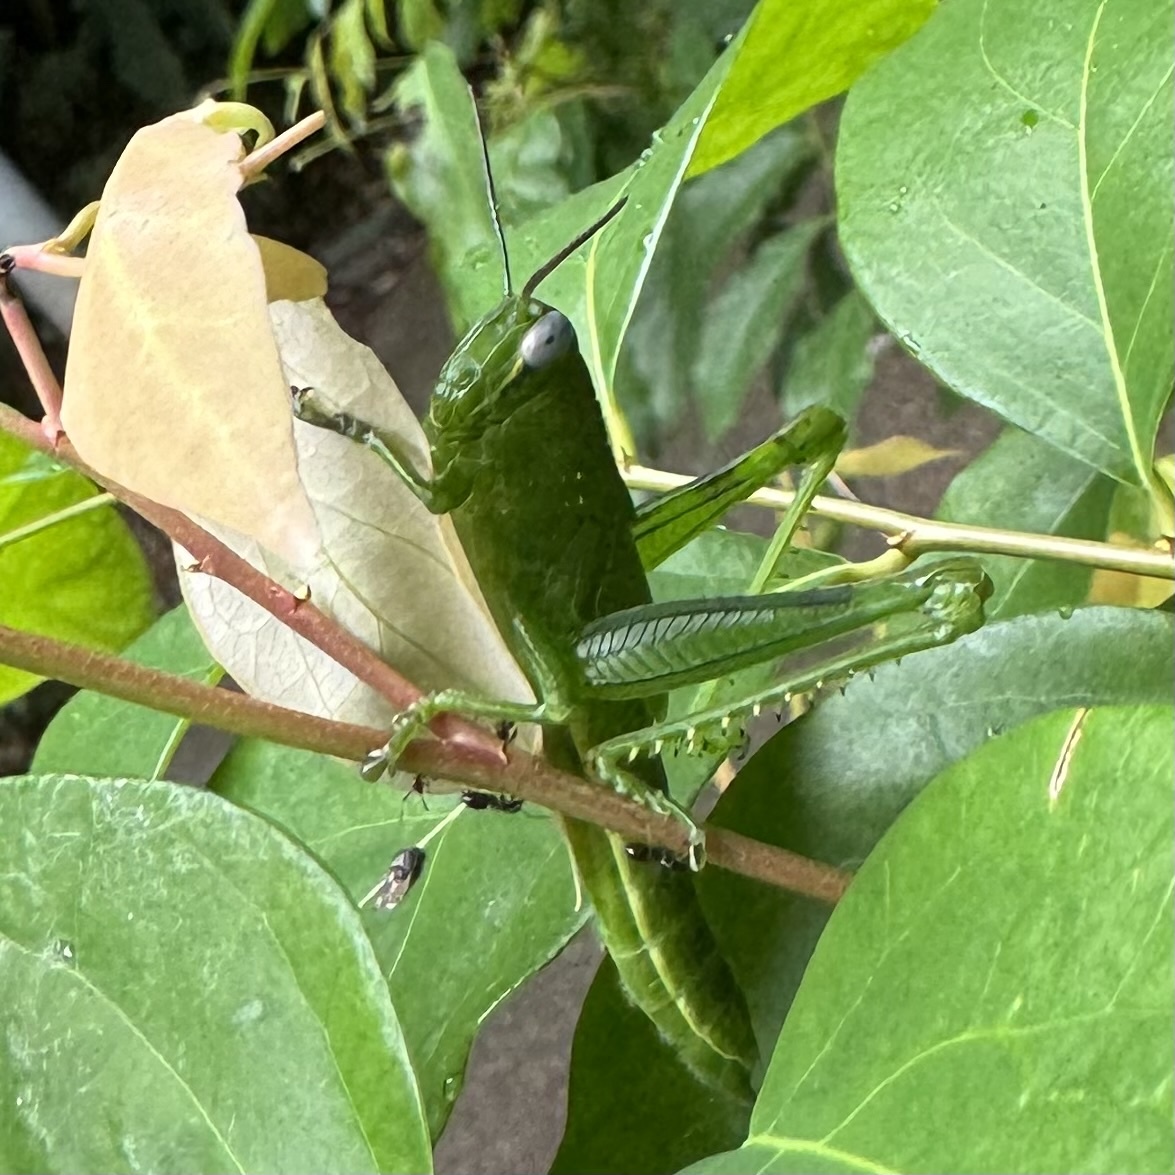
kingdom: Animalia
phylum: Arthropoda
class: Insecta
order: Orthoptera
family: Acrididae
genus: Valanga
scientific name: Valanga irregularis
